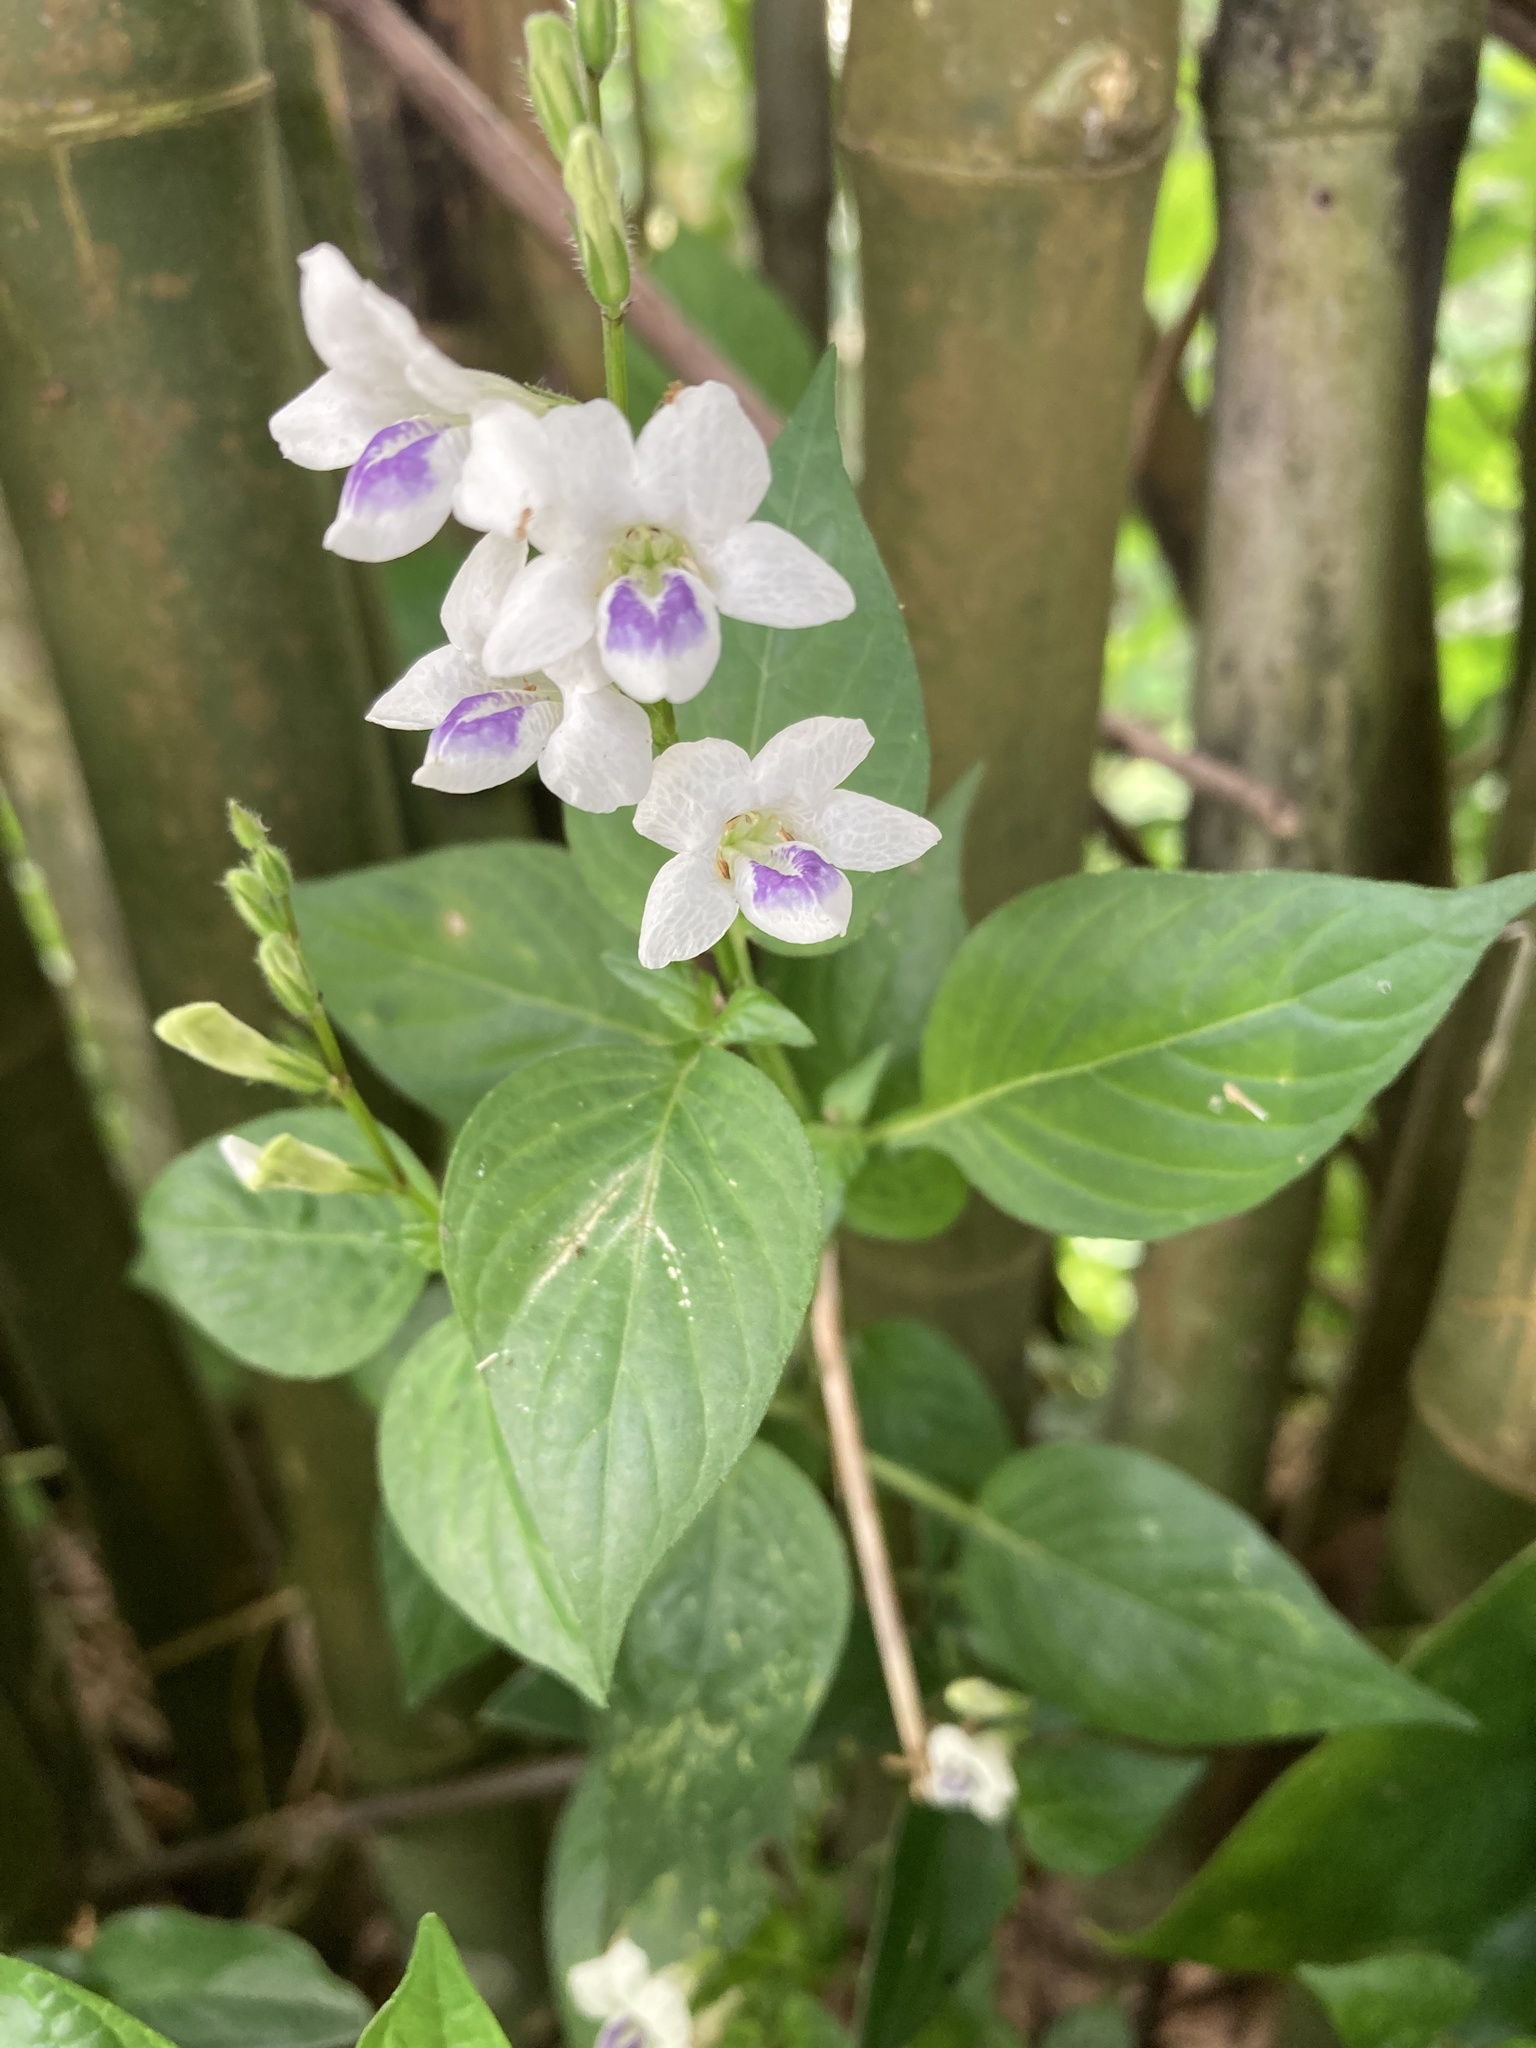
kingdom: Plantae
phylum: Tracheophyta
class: Magnoliopsida
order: Lamiales
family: Acanthaceae
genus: Asystasia
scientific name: Asystasia intrusa
